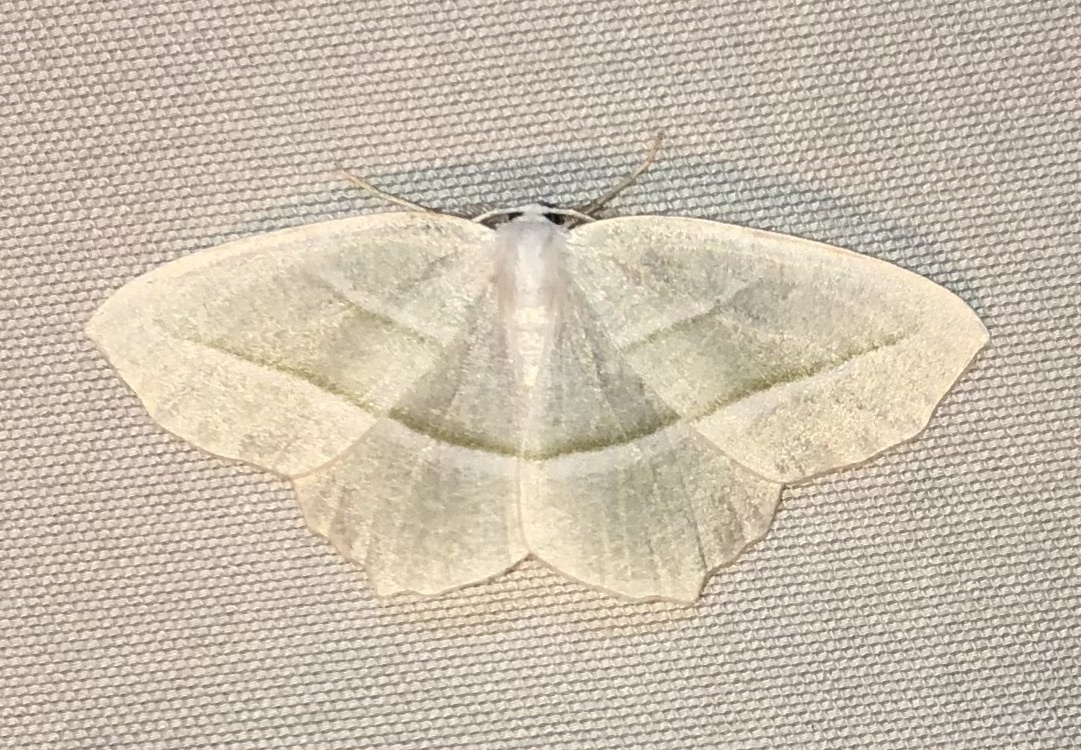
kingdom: Animalia
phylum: Arthropoda
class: Insecta
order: Lepidoptera
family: Geometridae
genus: Campaea
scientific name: Campaea perlata
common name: Fringed looper
